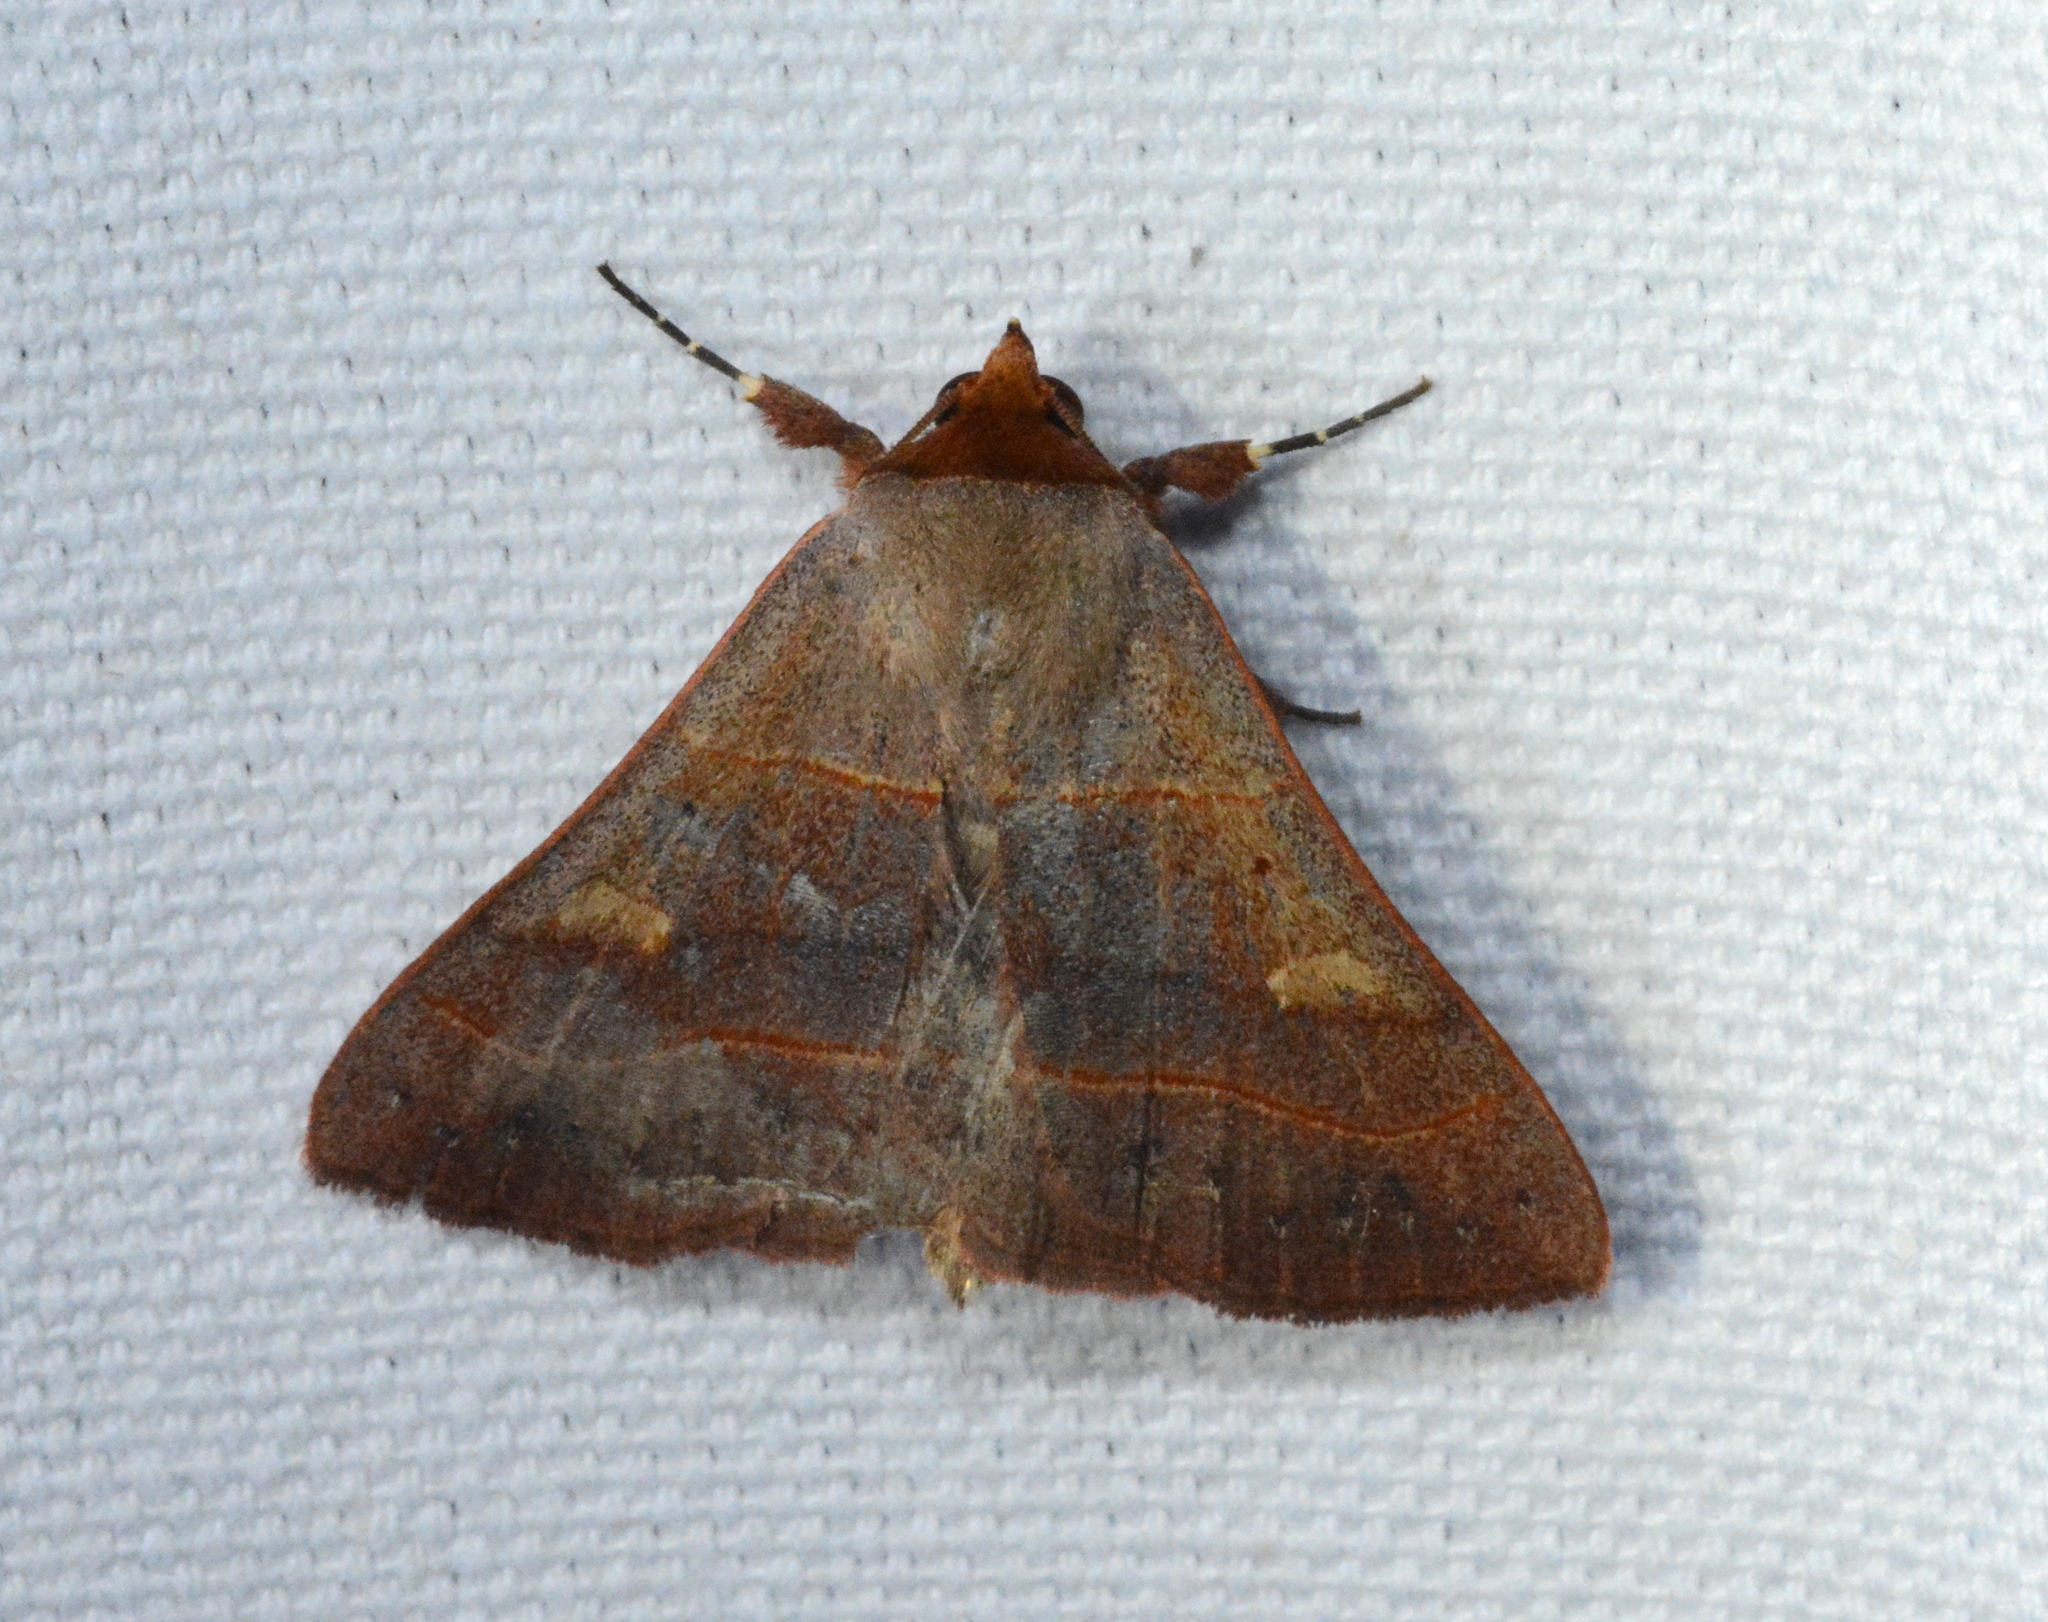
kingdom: Animalia
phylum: Arthropoda
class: Insecta
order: Lepidoptera
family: Erebidae
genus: Panopoda
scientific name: Panopoda rufimargo
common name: Red-lined panopoda moth
